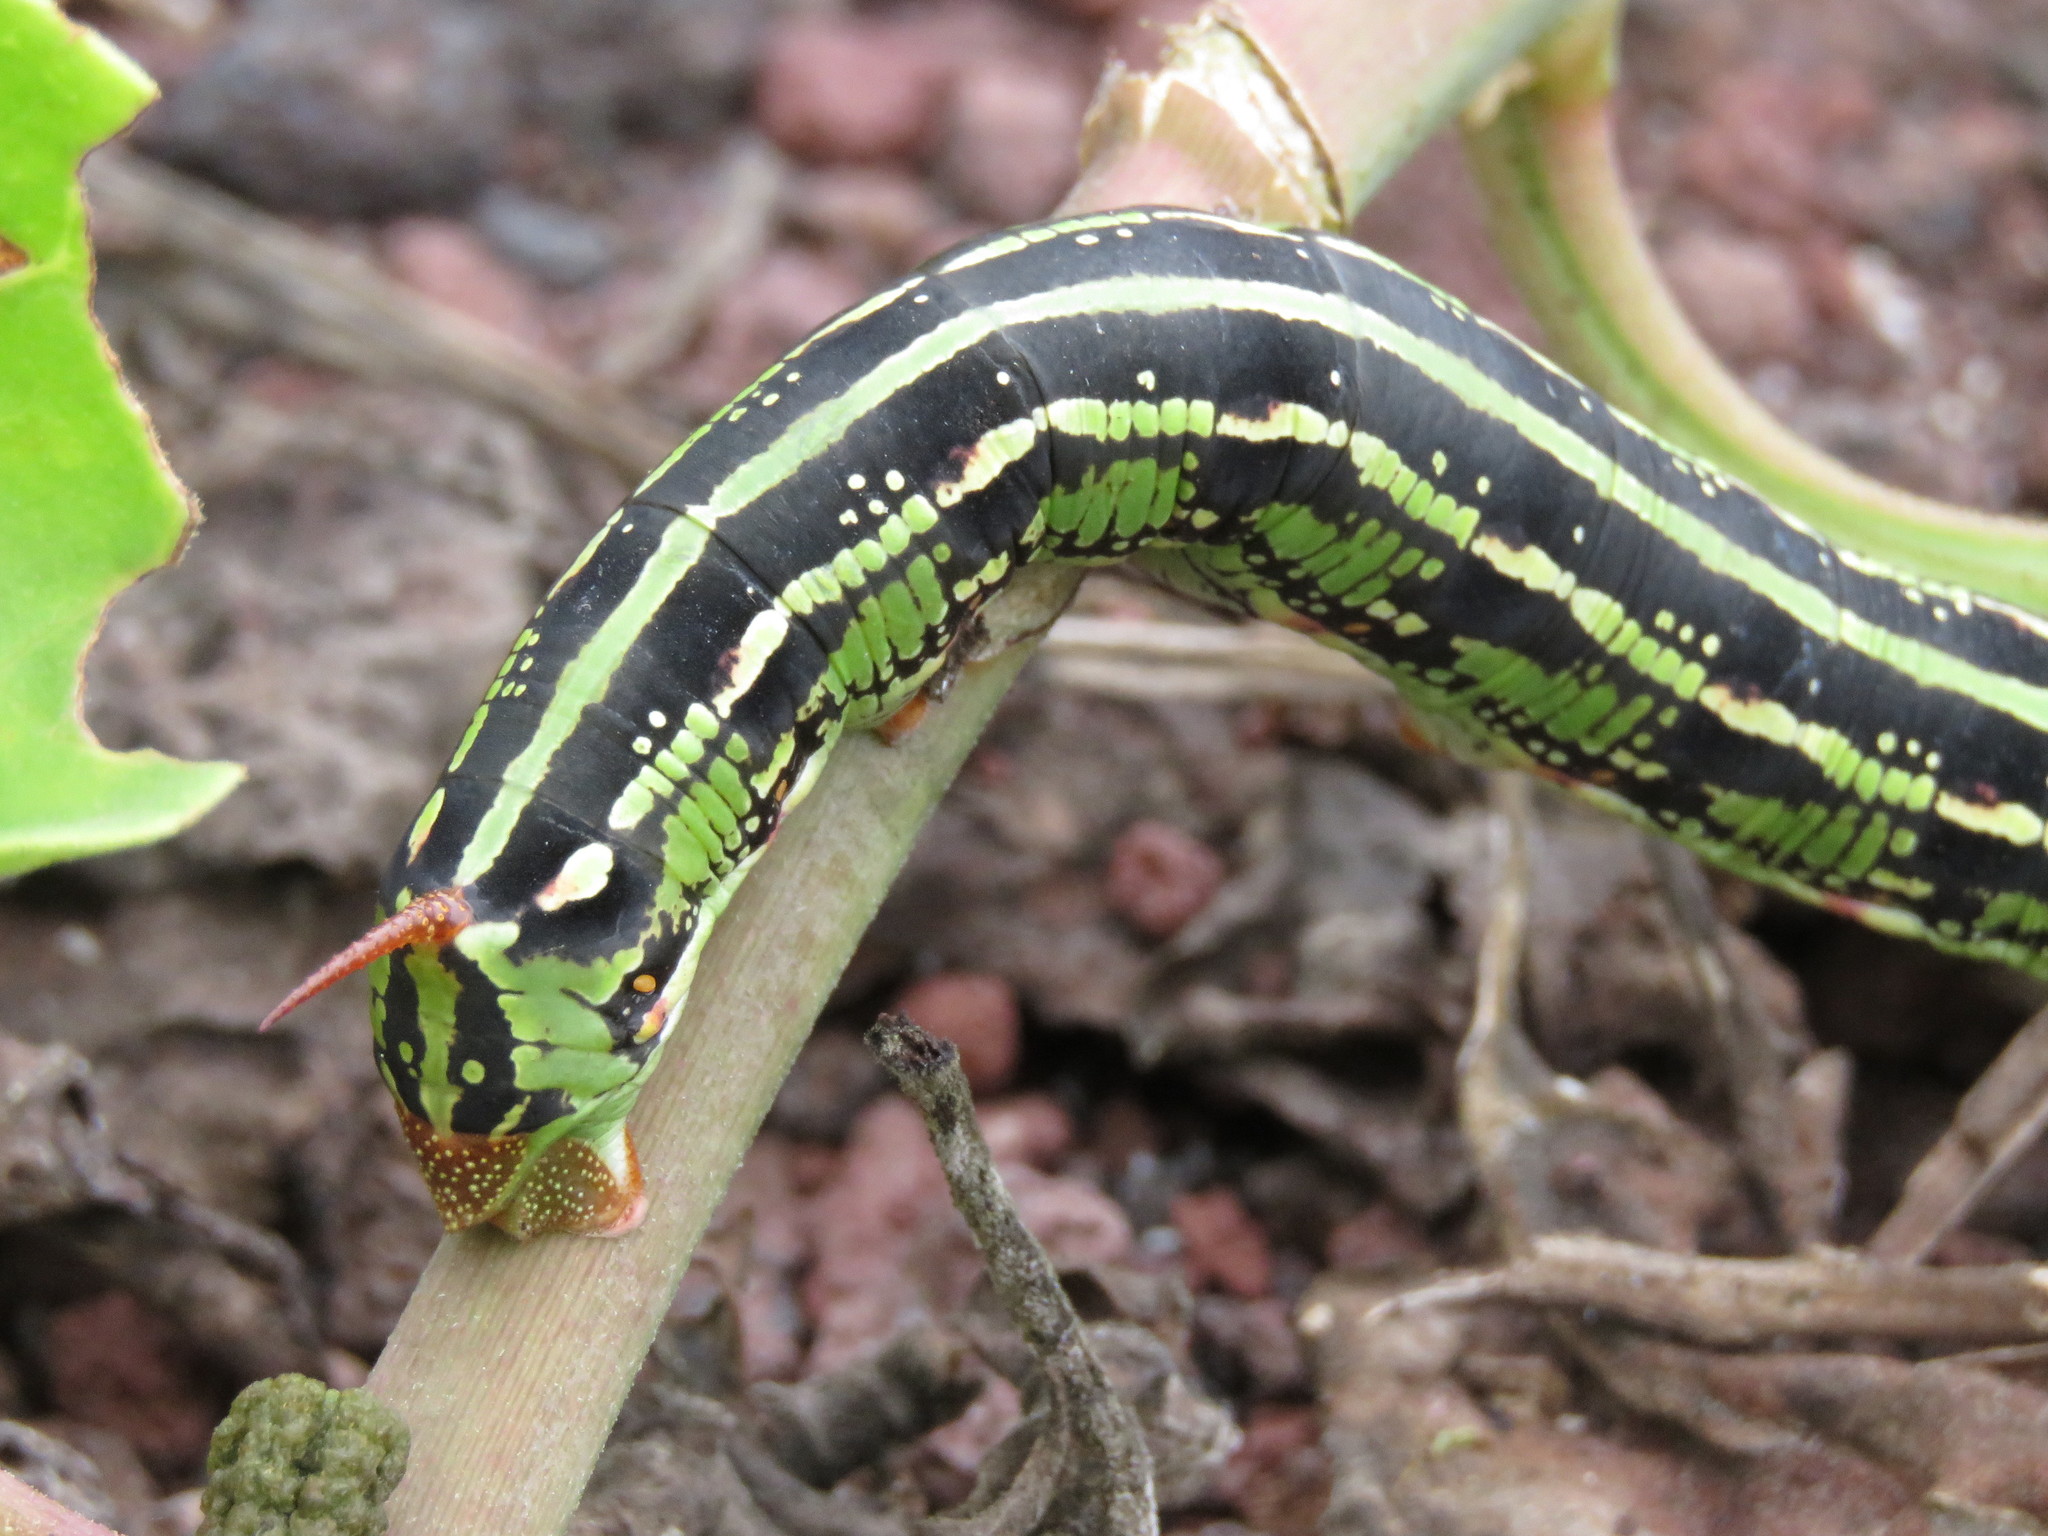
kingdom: Animalia
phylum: Arthropoda
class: Insecta
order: Lepidoptera
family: Sphingidae
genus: Hyles
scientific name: Hyles lineata
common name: White-lined sphinx
